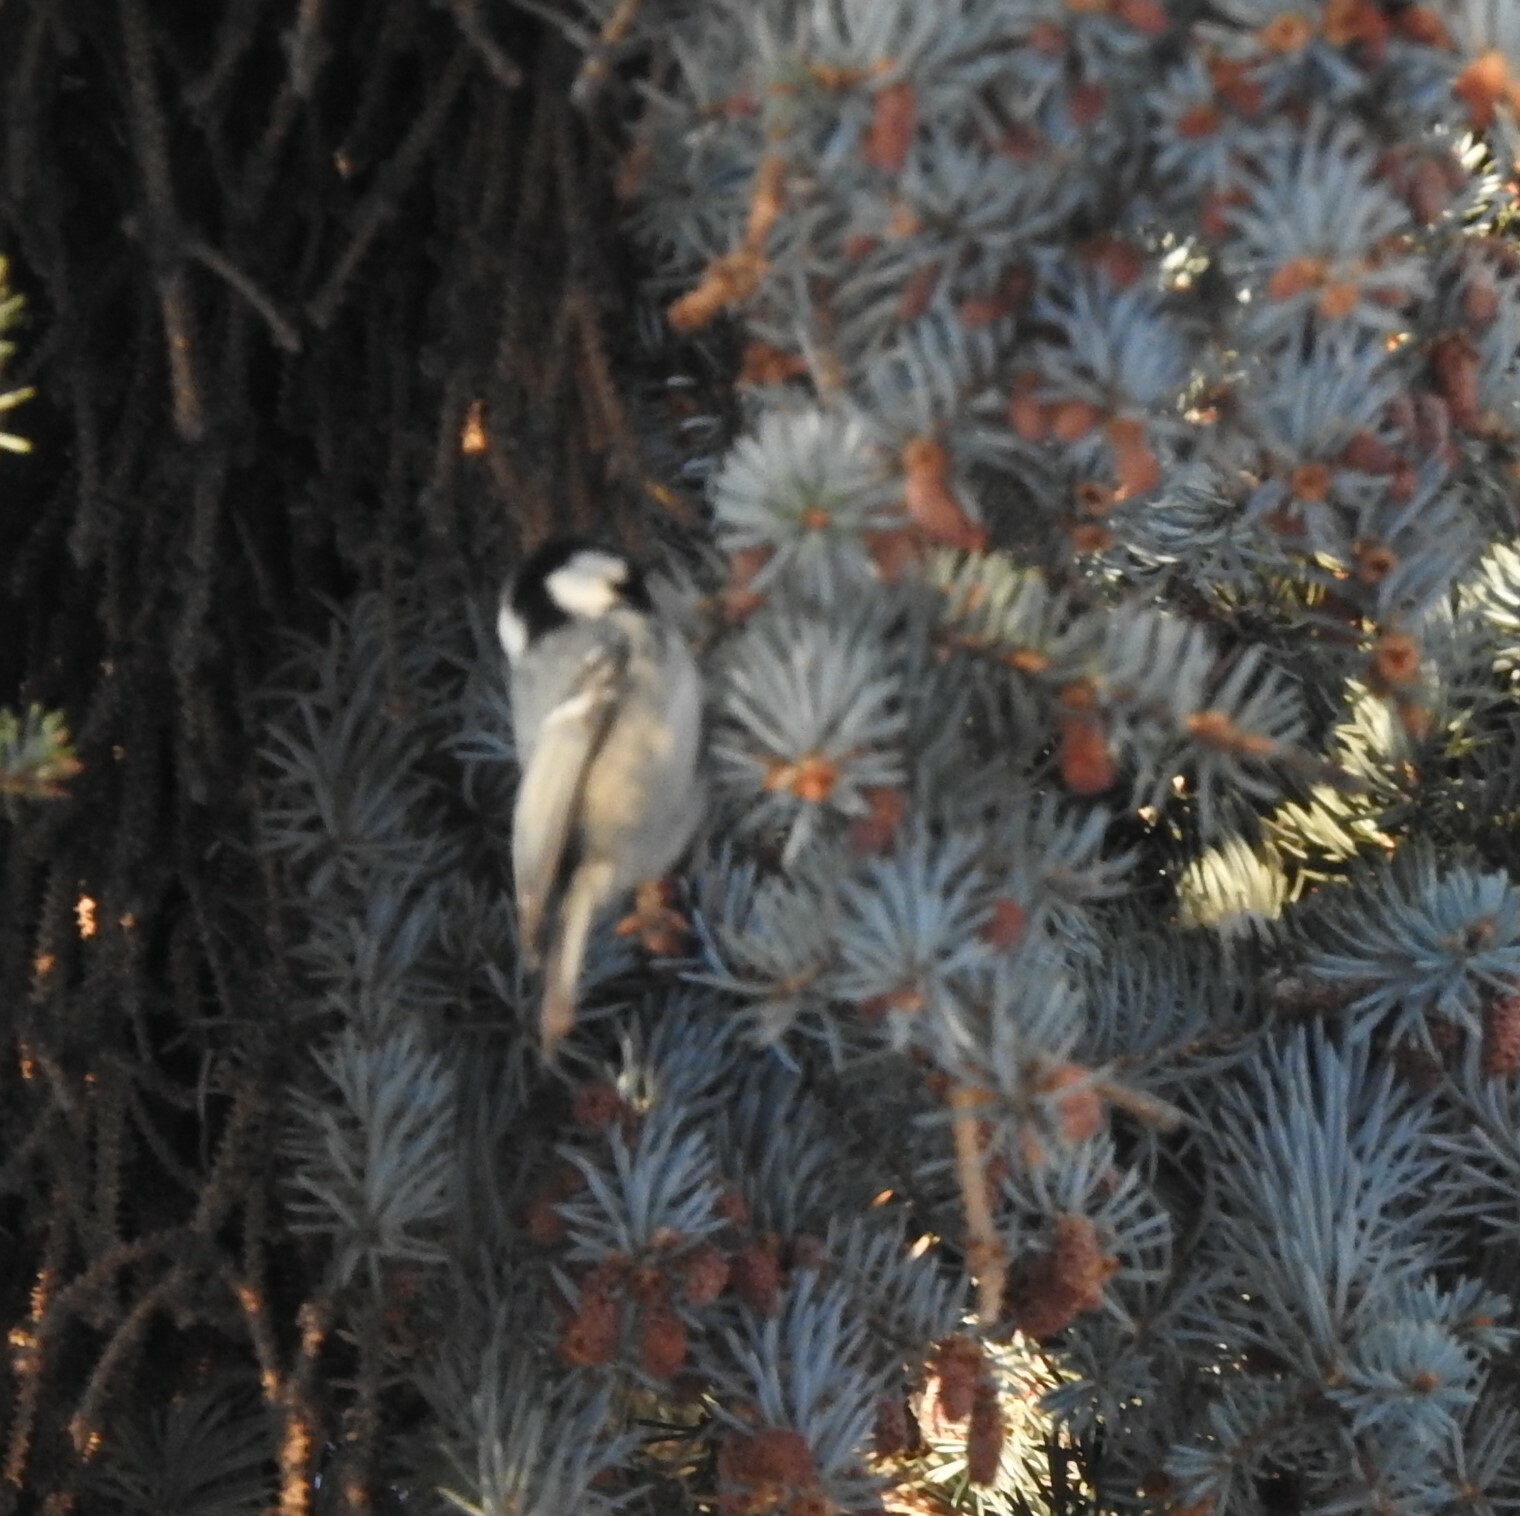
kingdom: Animalia
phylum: Chordata
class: Aves
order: Passeriformes
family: Paridae
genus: Periparus
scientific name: Periparus ater
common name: Coal tit
